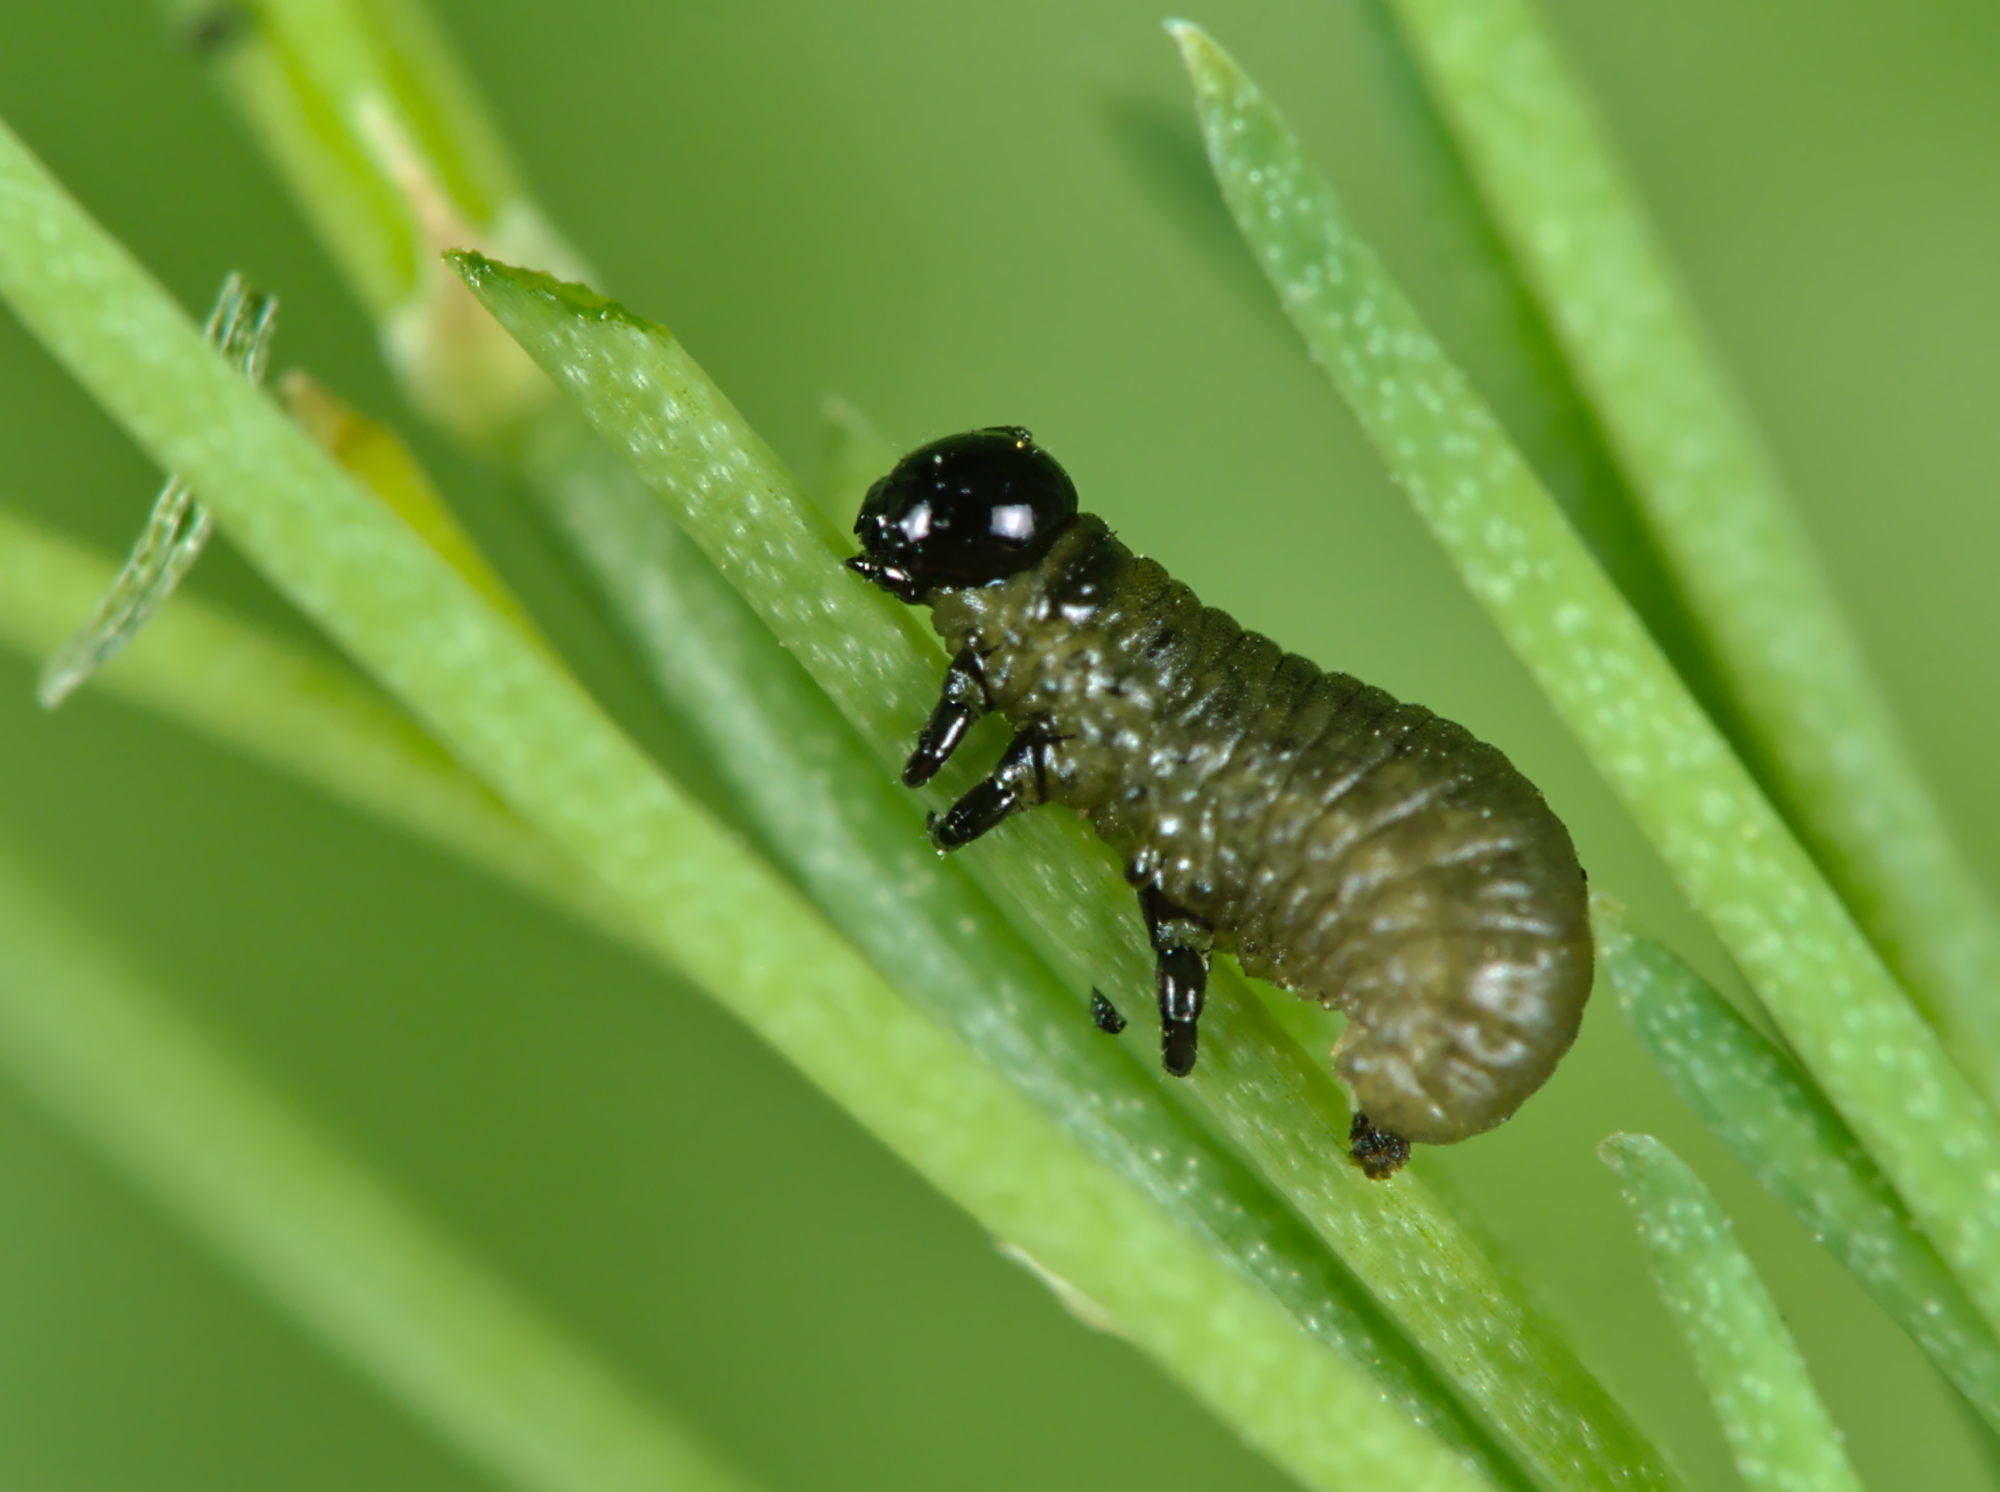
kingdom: Animalia
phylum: Arthropoda
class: Insecta
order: Coleoptera
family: Chrysomelidae
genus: Crioceris
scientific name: Crioceris asparagi
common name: Asparagus beetle
